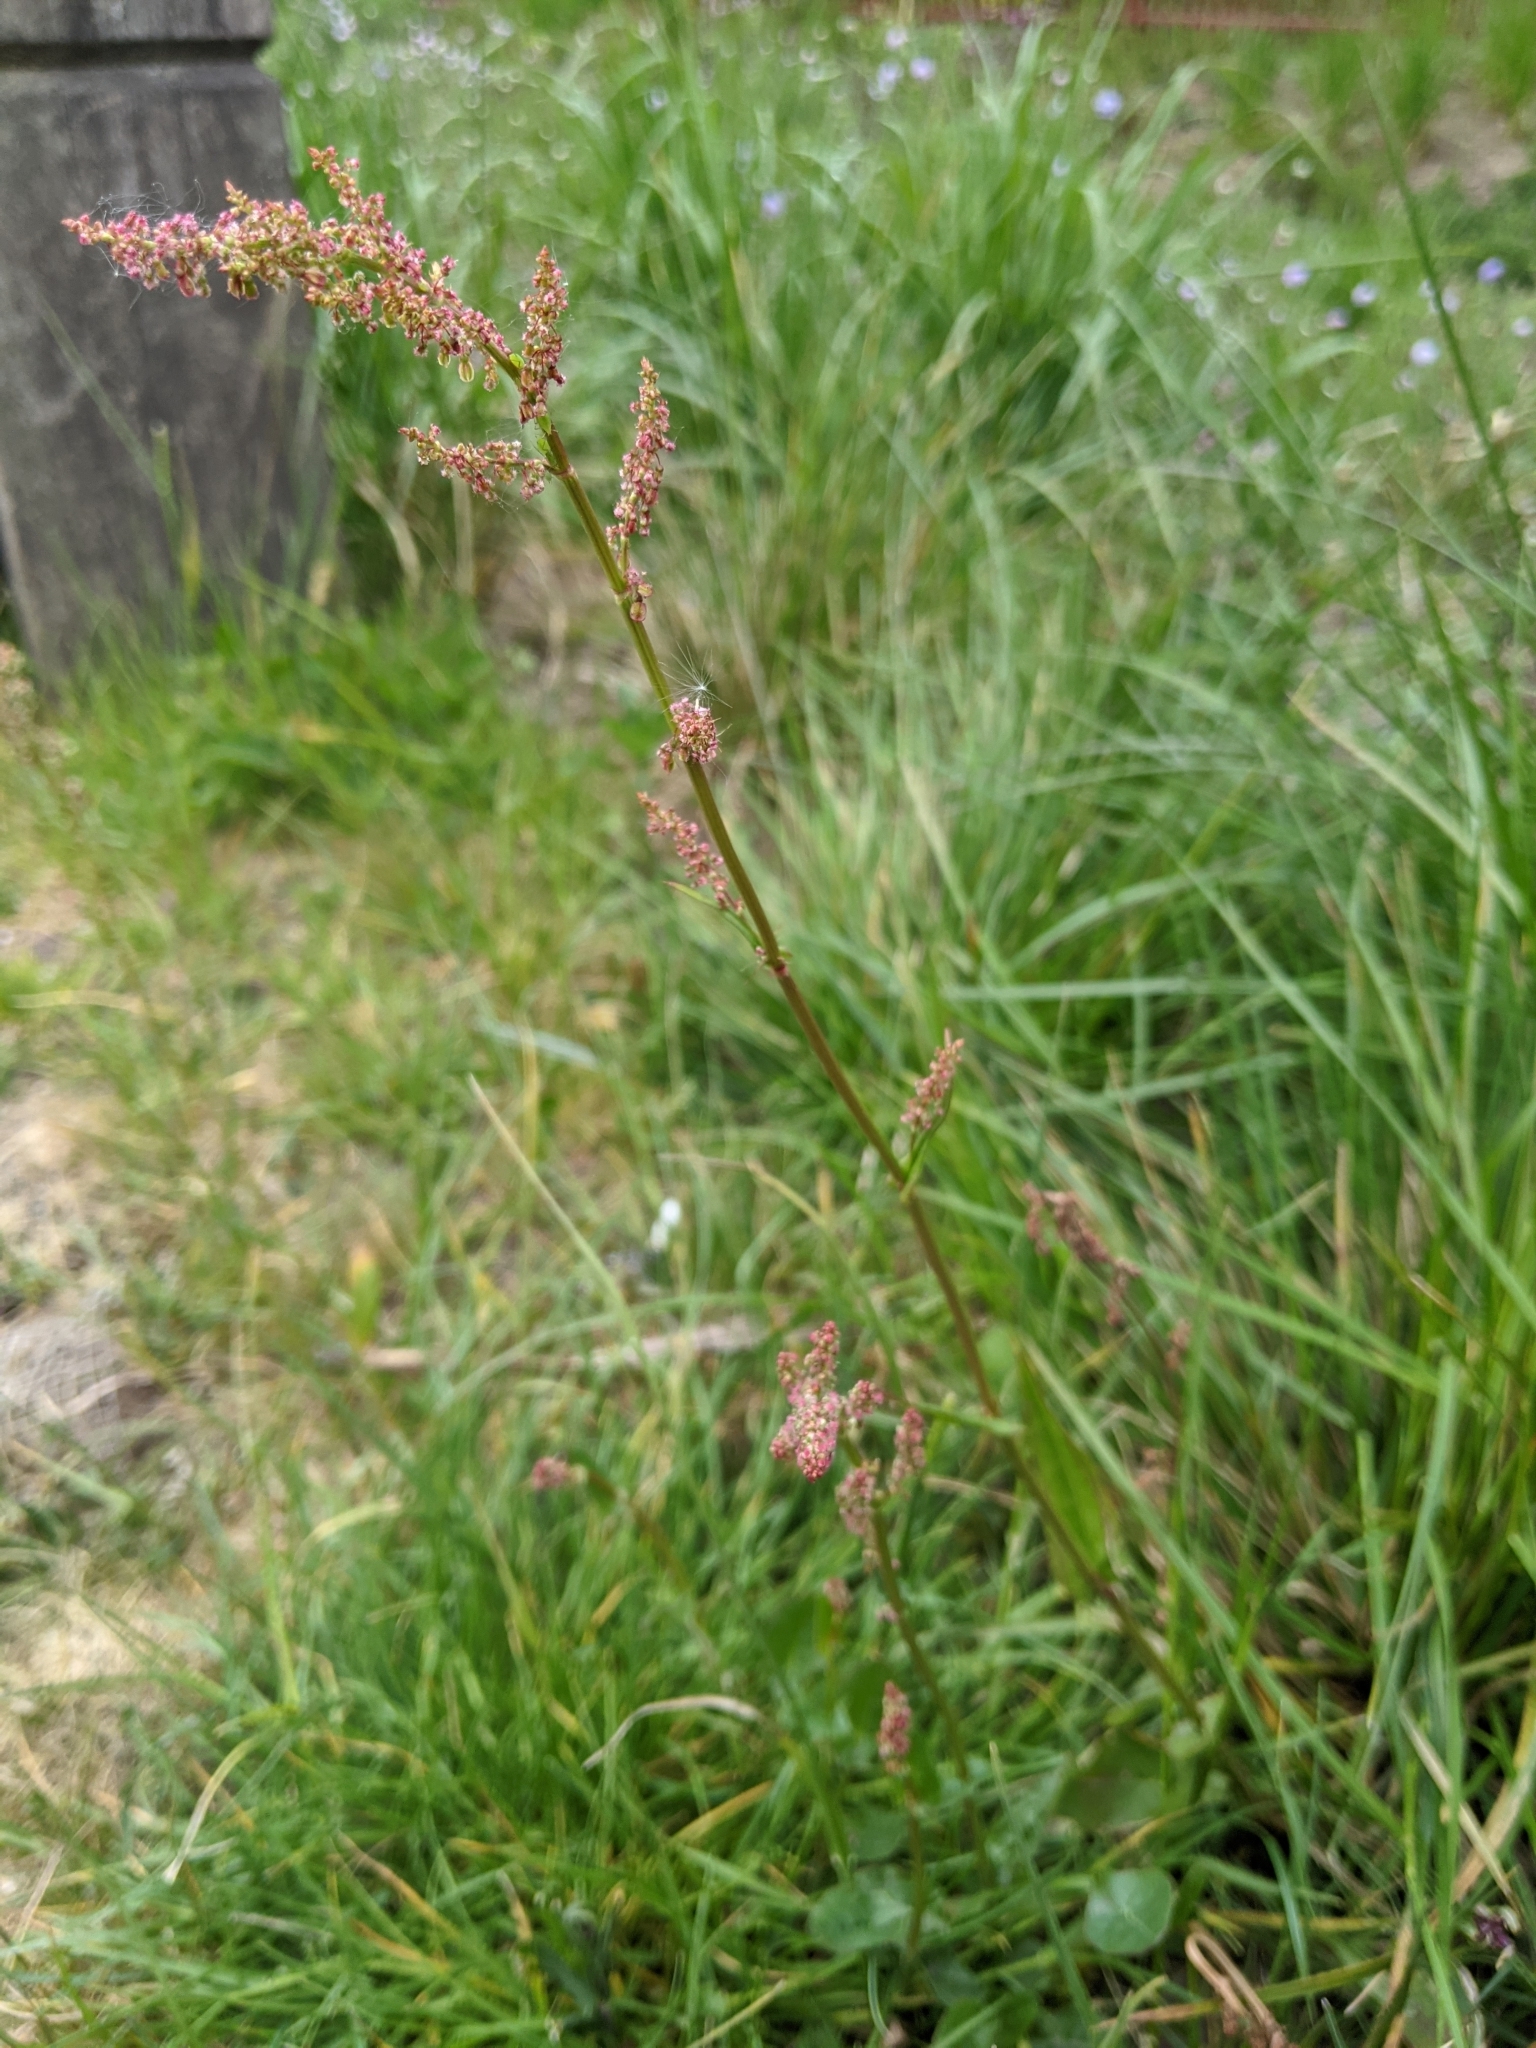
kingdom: Plantae
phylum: Tracheophyta
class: Magnoliopsida
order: Caryophyllales
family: Polygonaceae
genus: Rumex
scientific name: Rumex acetosa
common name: Garden sorrel
